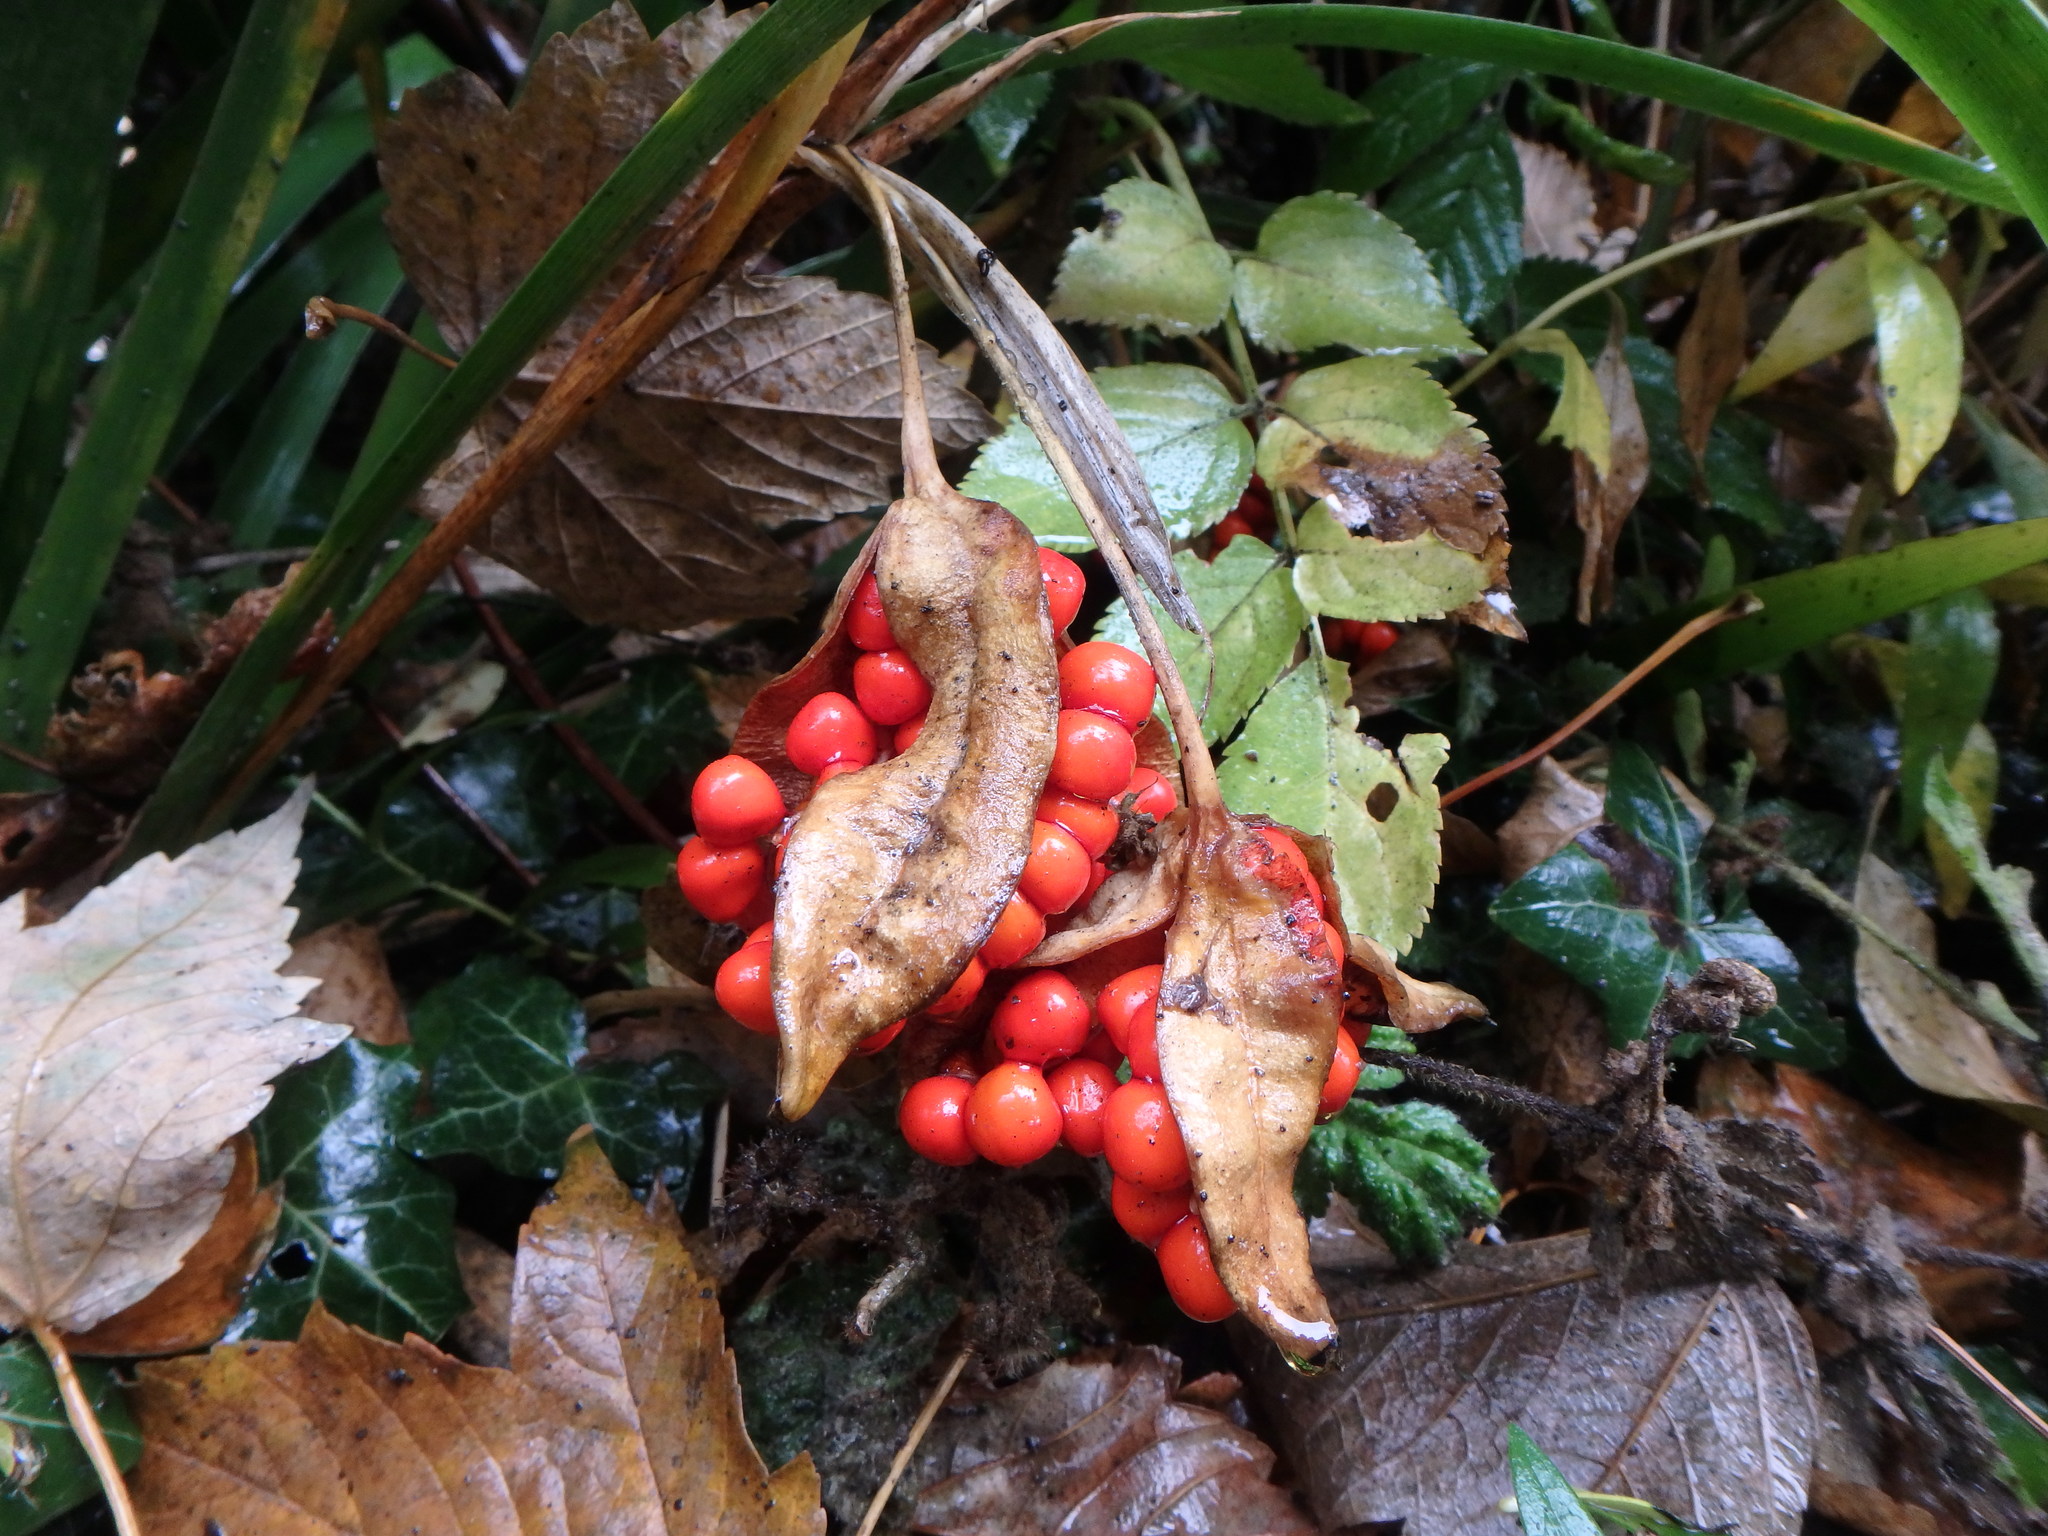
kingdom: Plantae
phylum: Tracheophyta
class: Liliopsida
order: Asparagales
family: Iridaceae
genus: Iris
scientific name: Iris foetidissima
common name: Stinking iris
